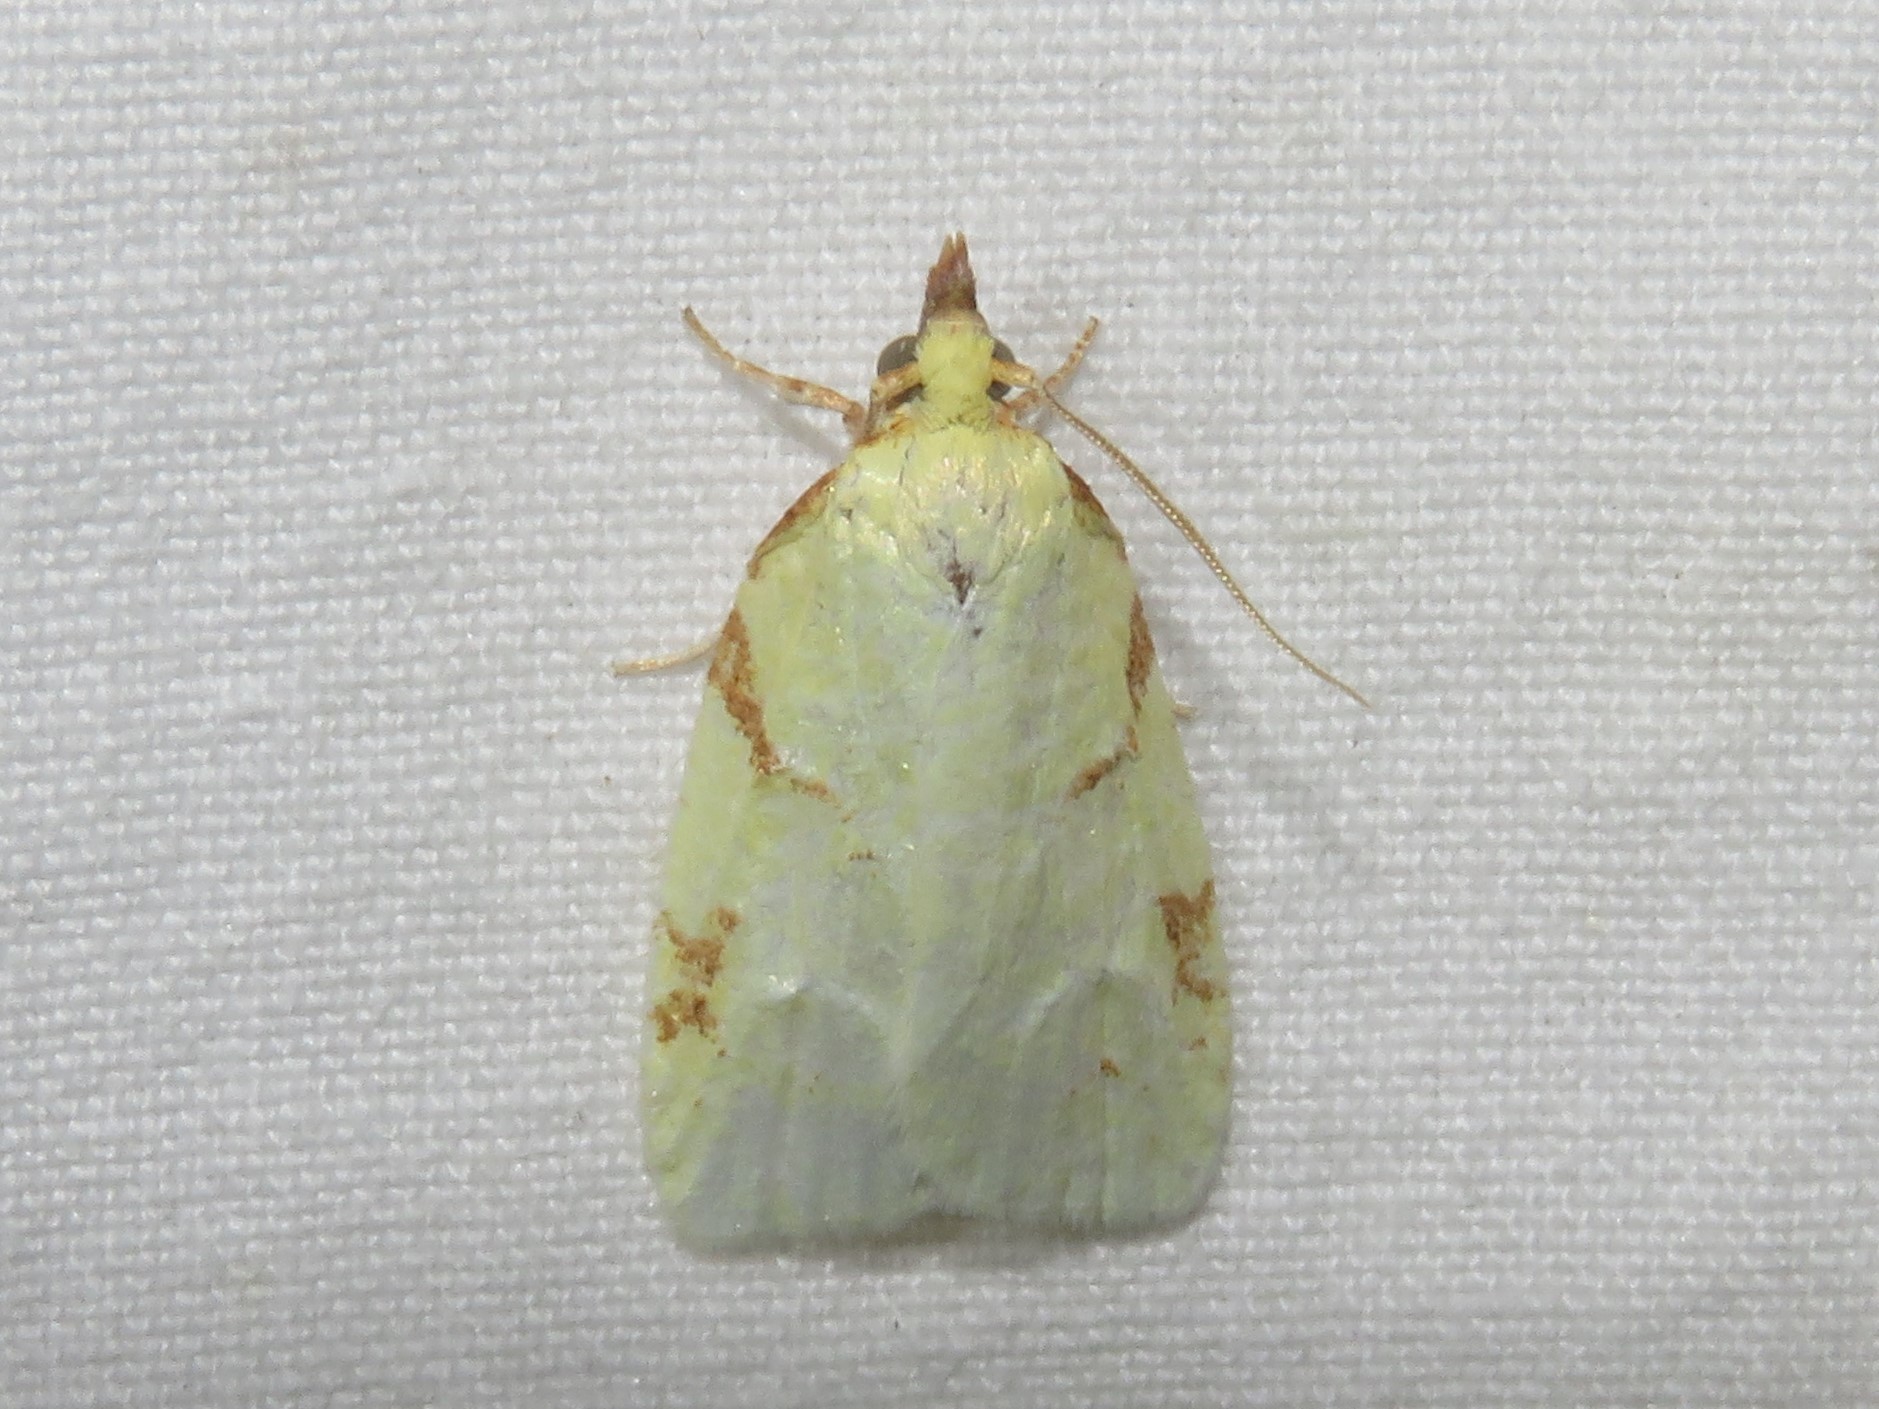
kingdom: Animalia
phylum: Arthropoda
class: Insecta
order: Lepidoptera
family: Tortricidae
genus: Cenopis
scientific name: Cenopis pettitana
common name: Maple-basswood leafroller moth
